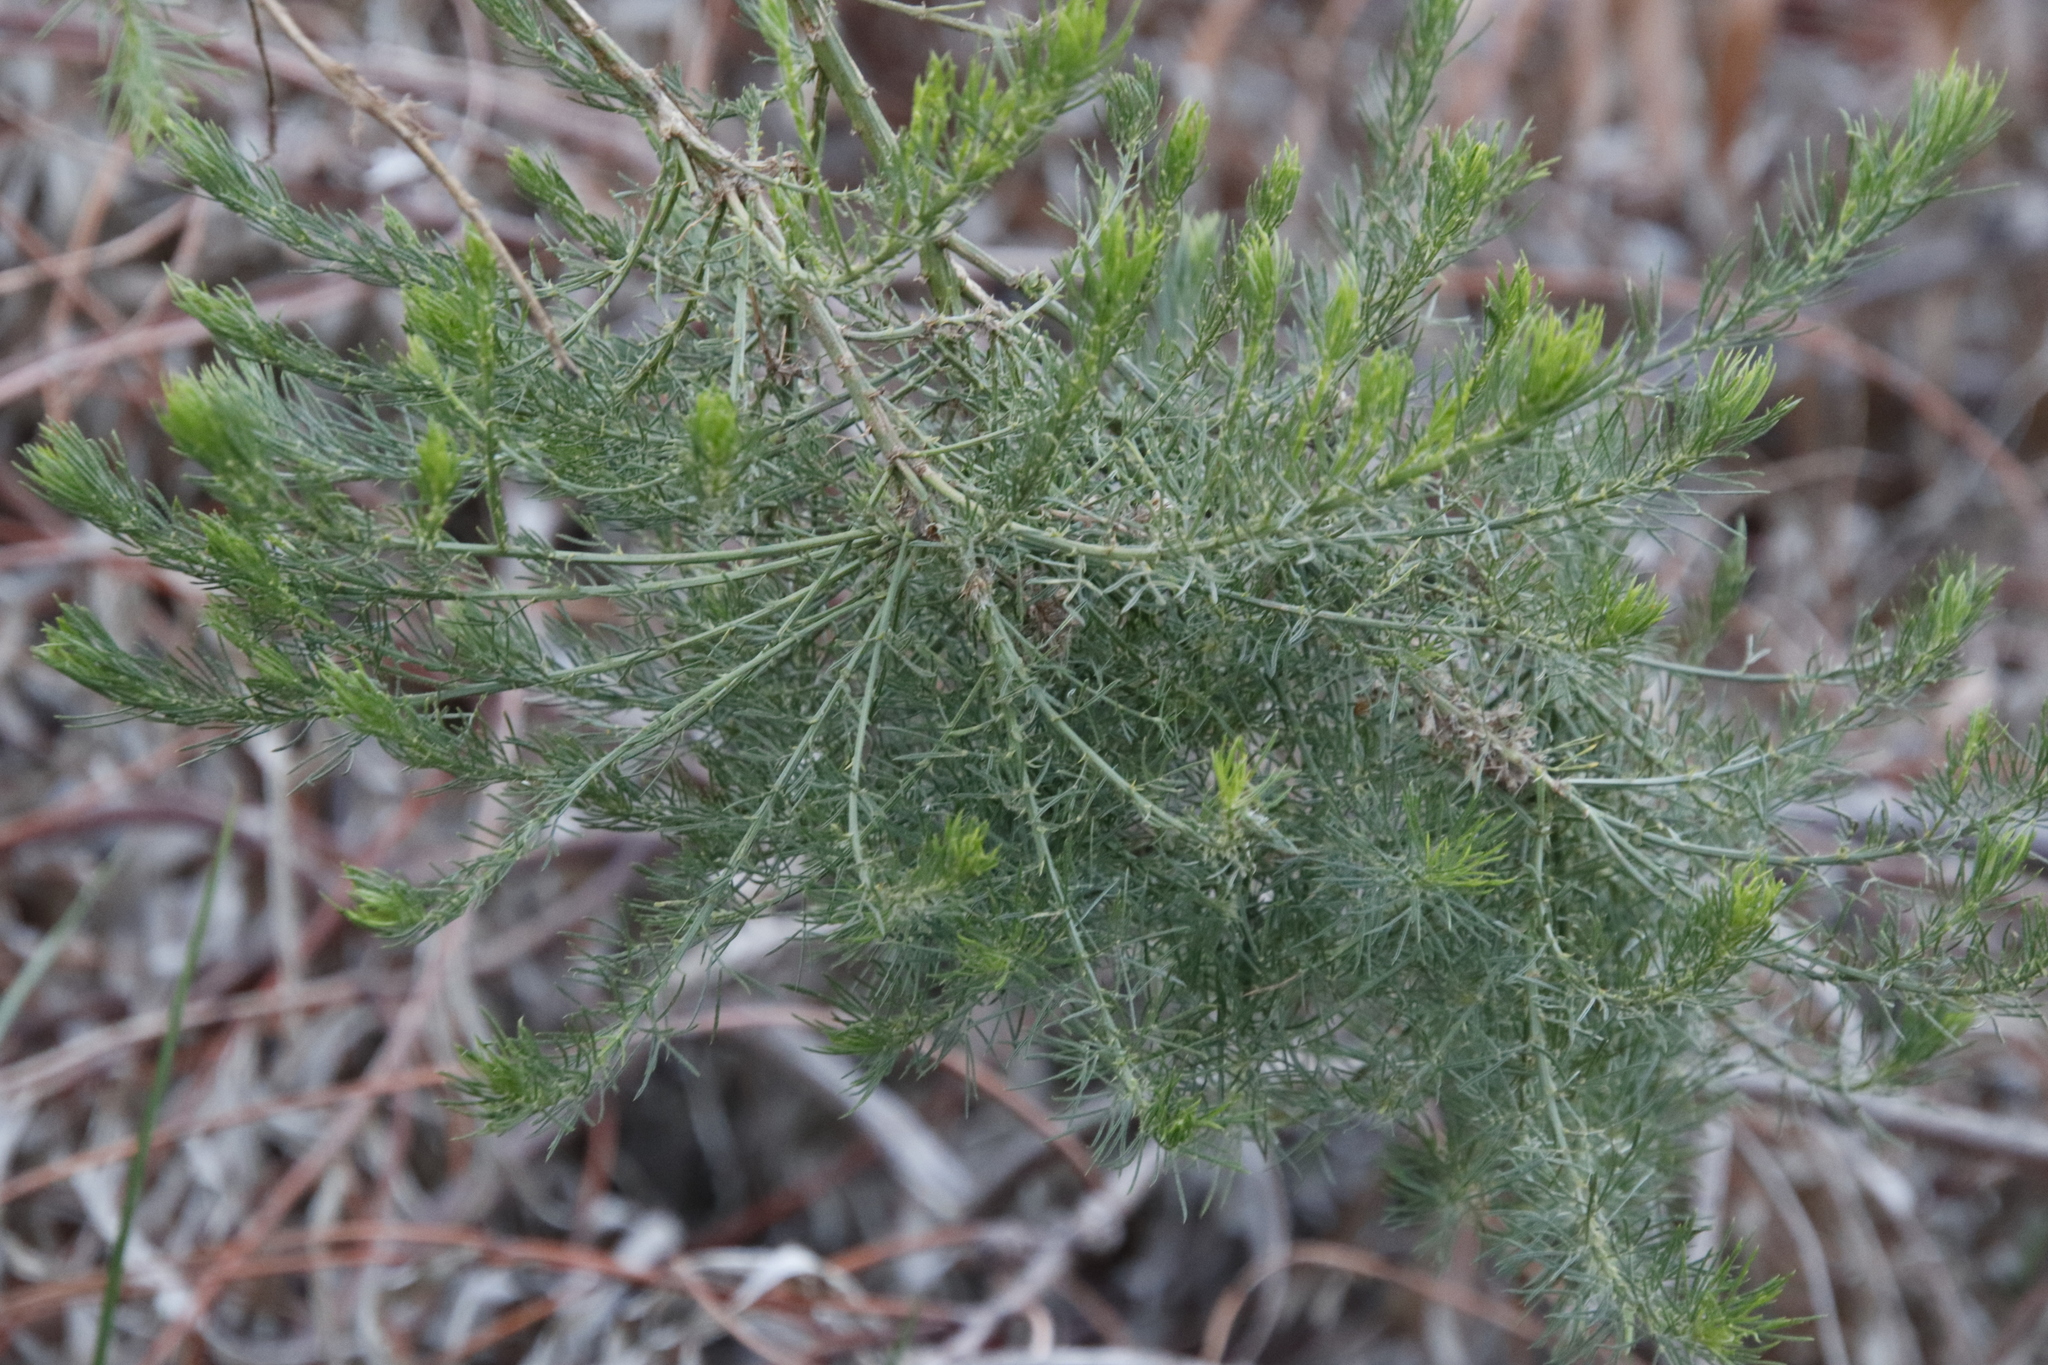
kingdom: Plantae
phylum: Tracheophyta
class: Magnoliopsida
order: Fabales
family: Fabaceae
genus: Psoralea
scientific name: Psoralea pinnata
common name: African scurfpea
